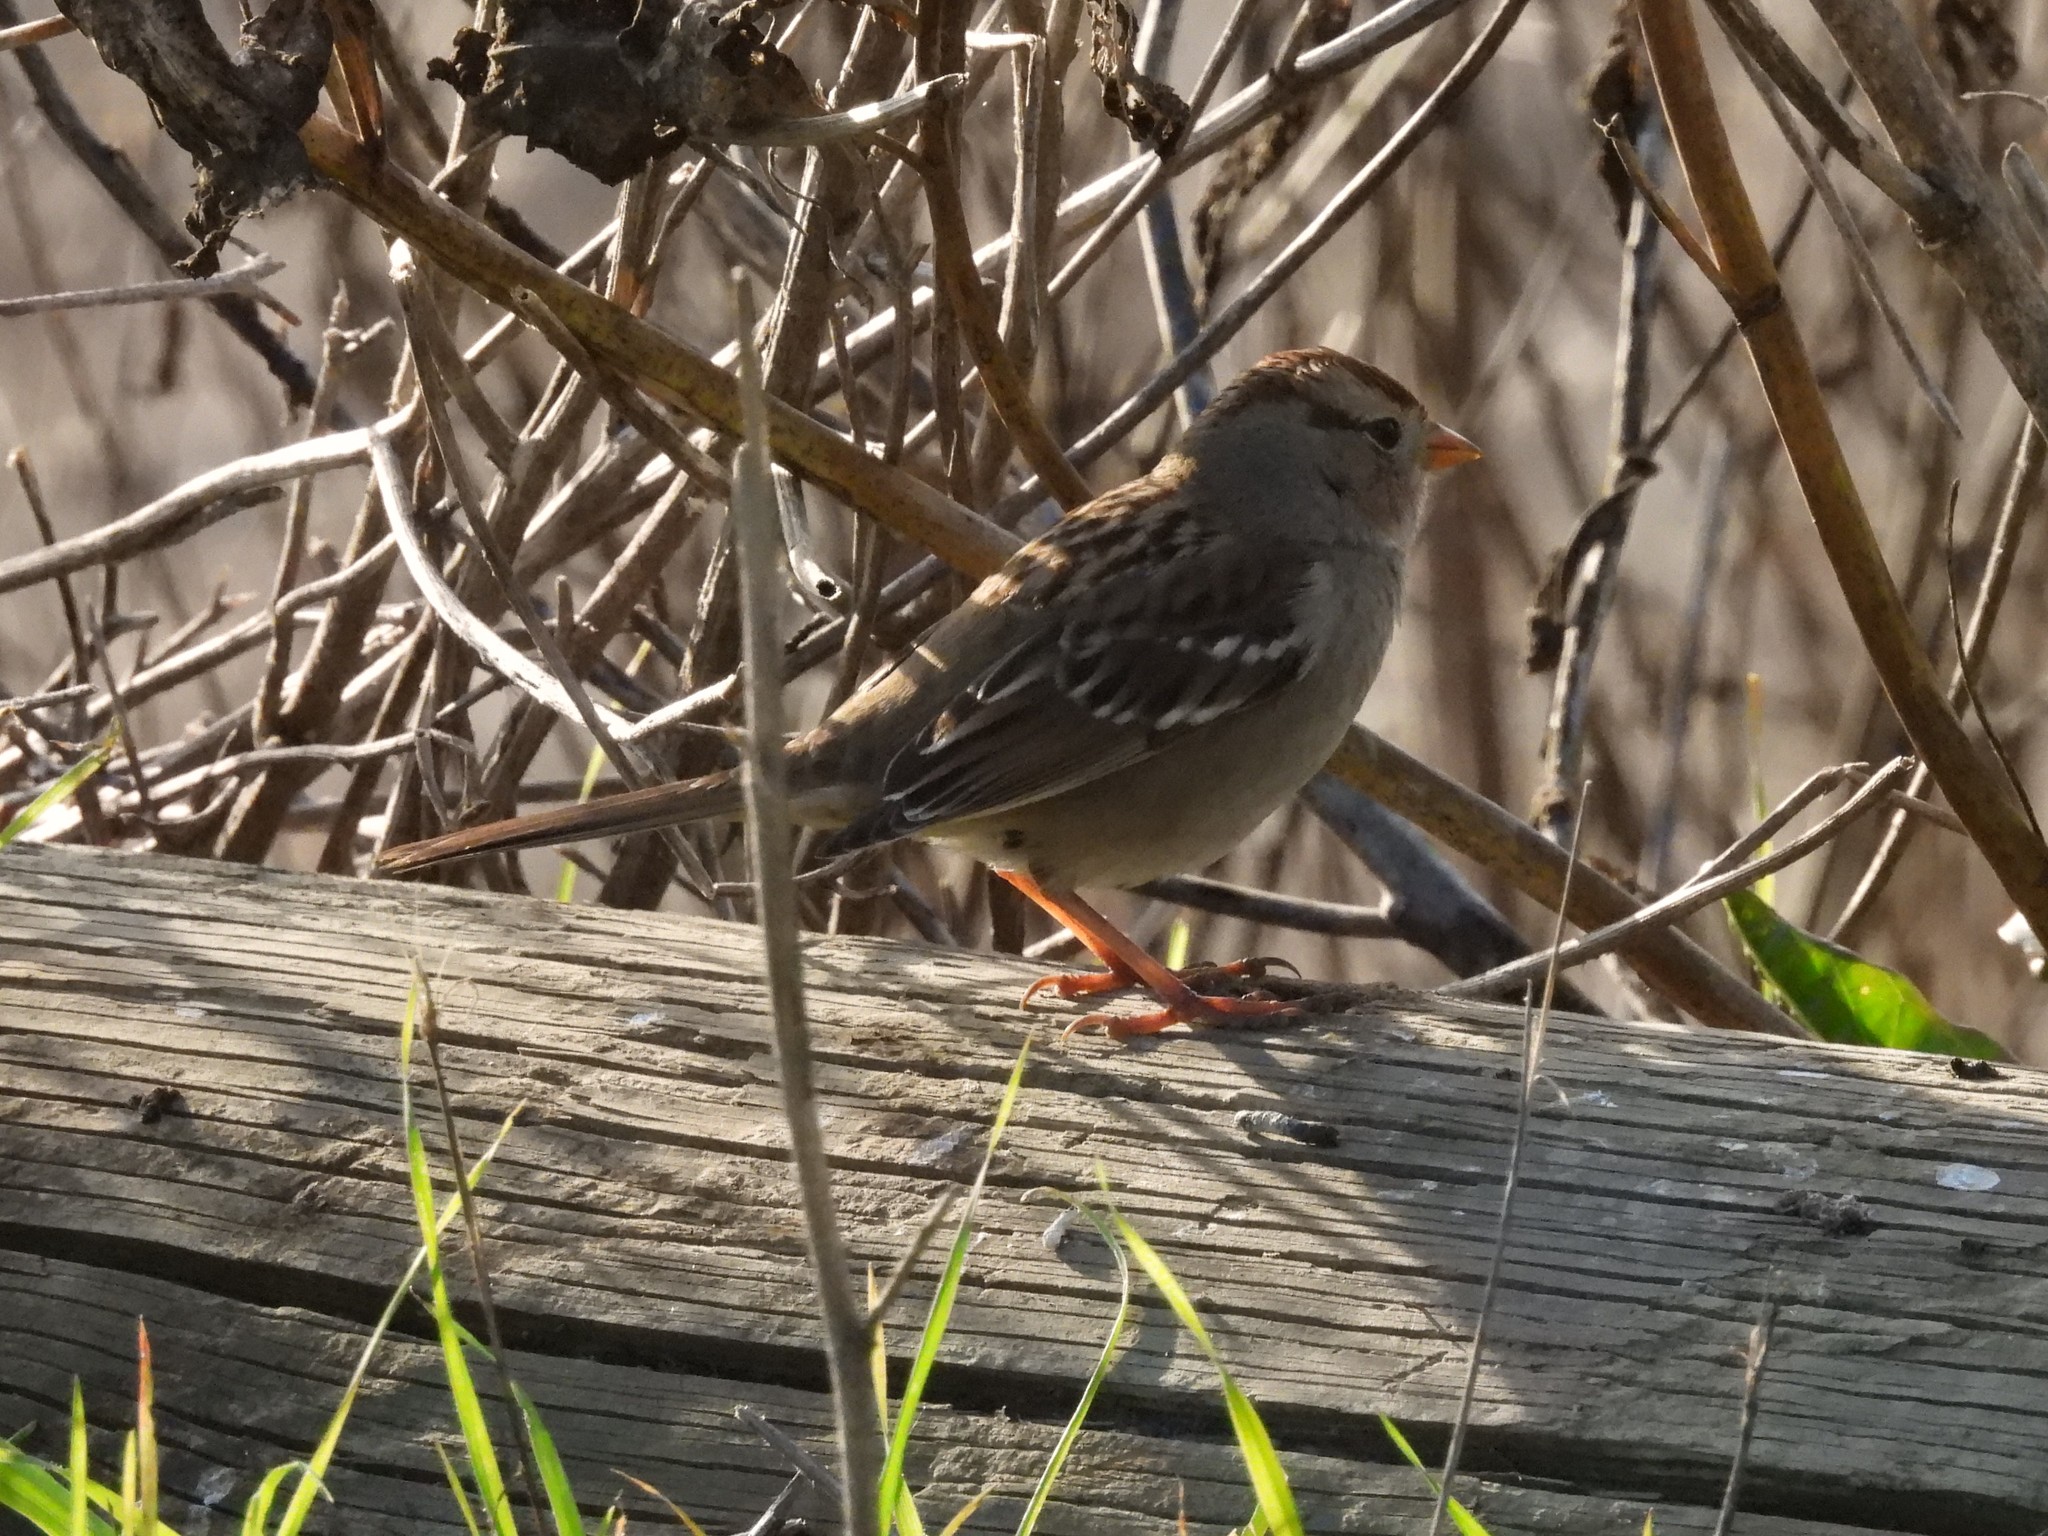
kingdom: Animalia
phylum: Chordata
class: Aves
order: Passeriformes
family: Passerellidae
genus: Zonotrichia
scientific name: Zonotrichia leucophrys
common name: White-crowned sparrow
